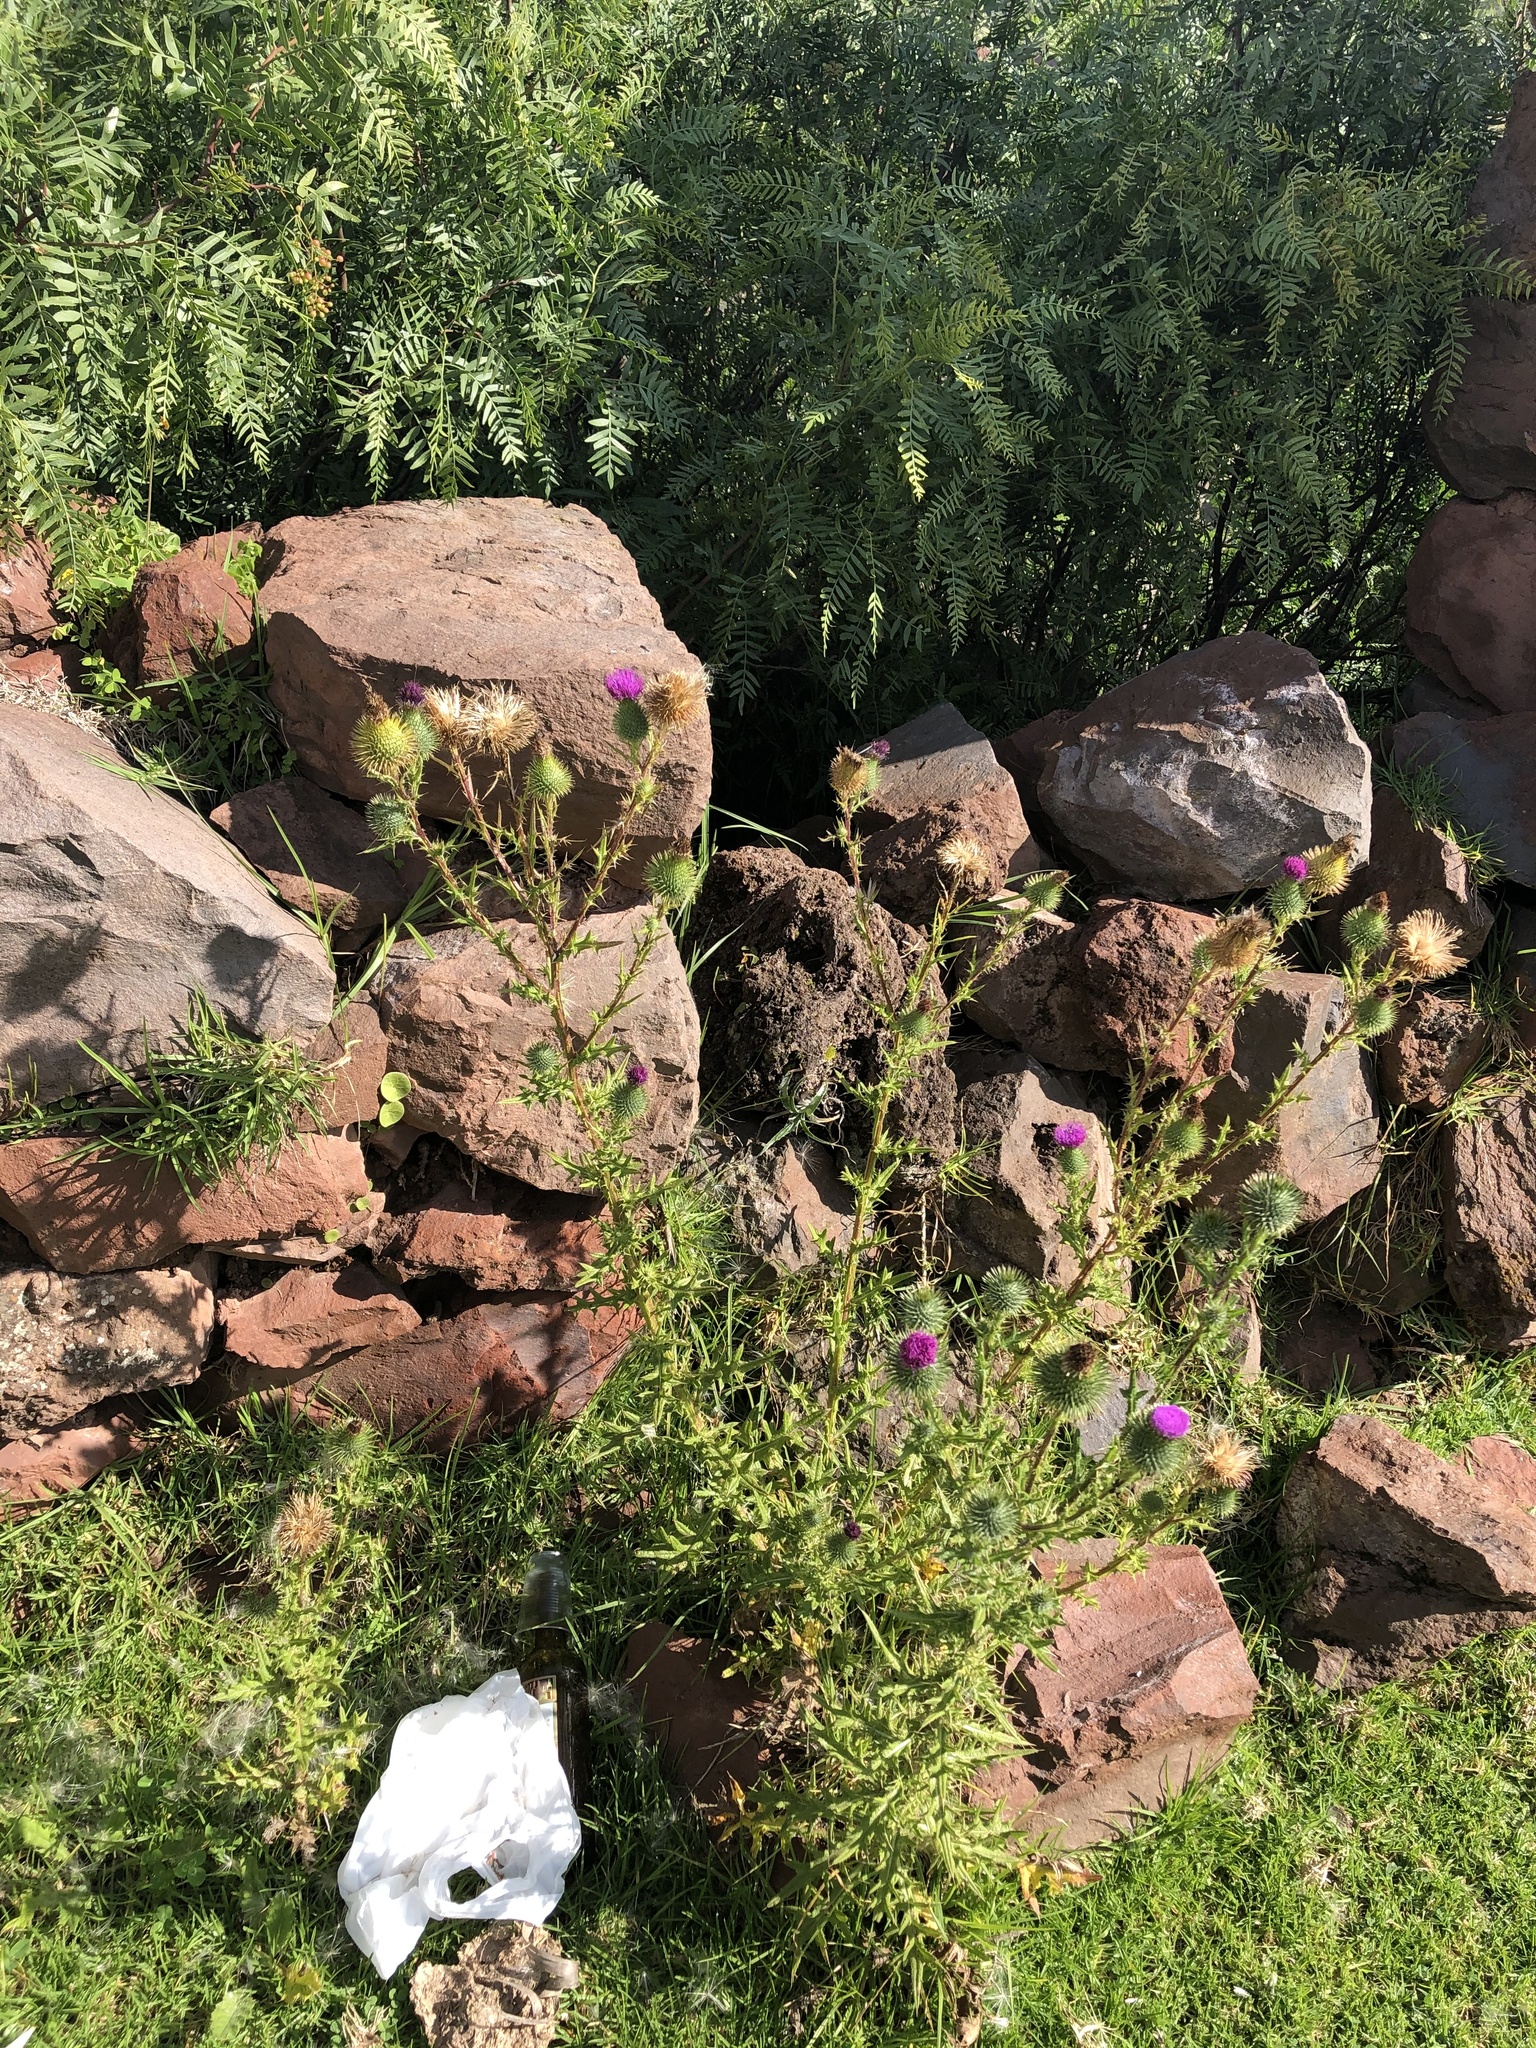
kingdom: Plantae
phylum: Tracheophyta
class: Magnoliopsida
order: Asterales
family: Asteraceae
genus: Cirsium
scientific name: Cirsium vulgare
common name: Bull thistle
